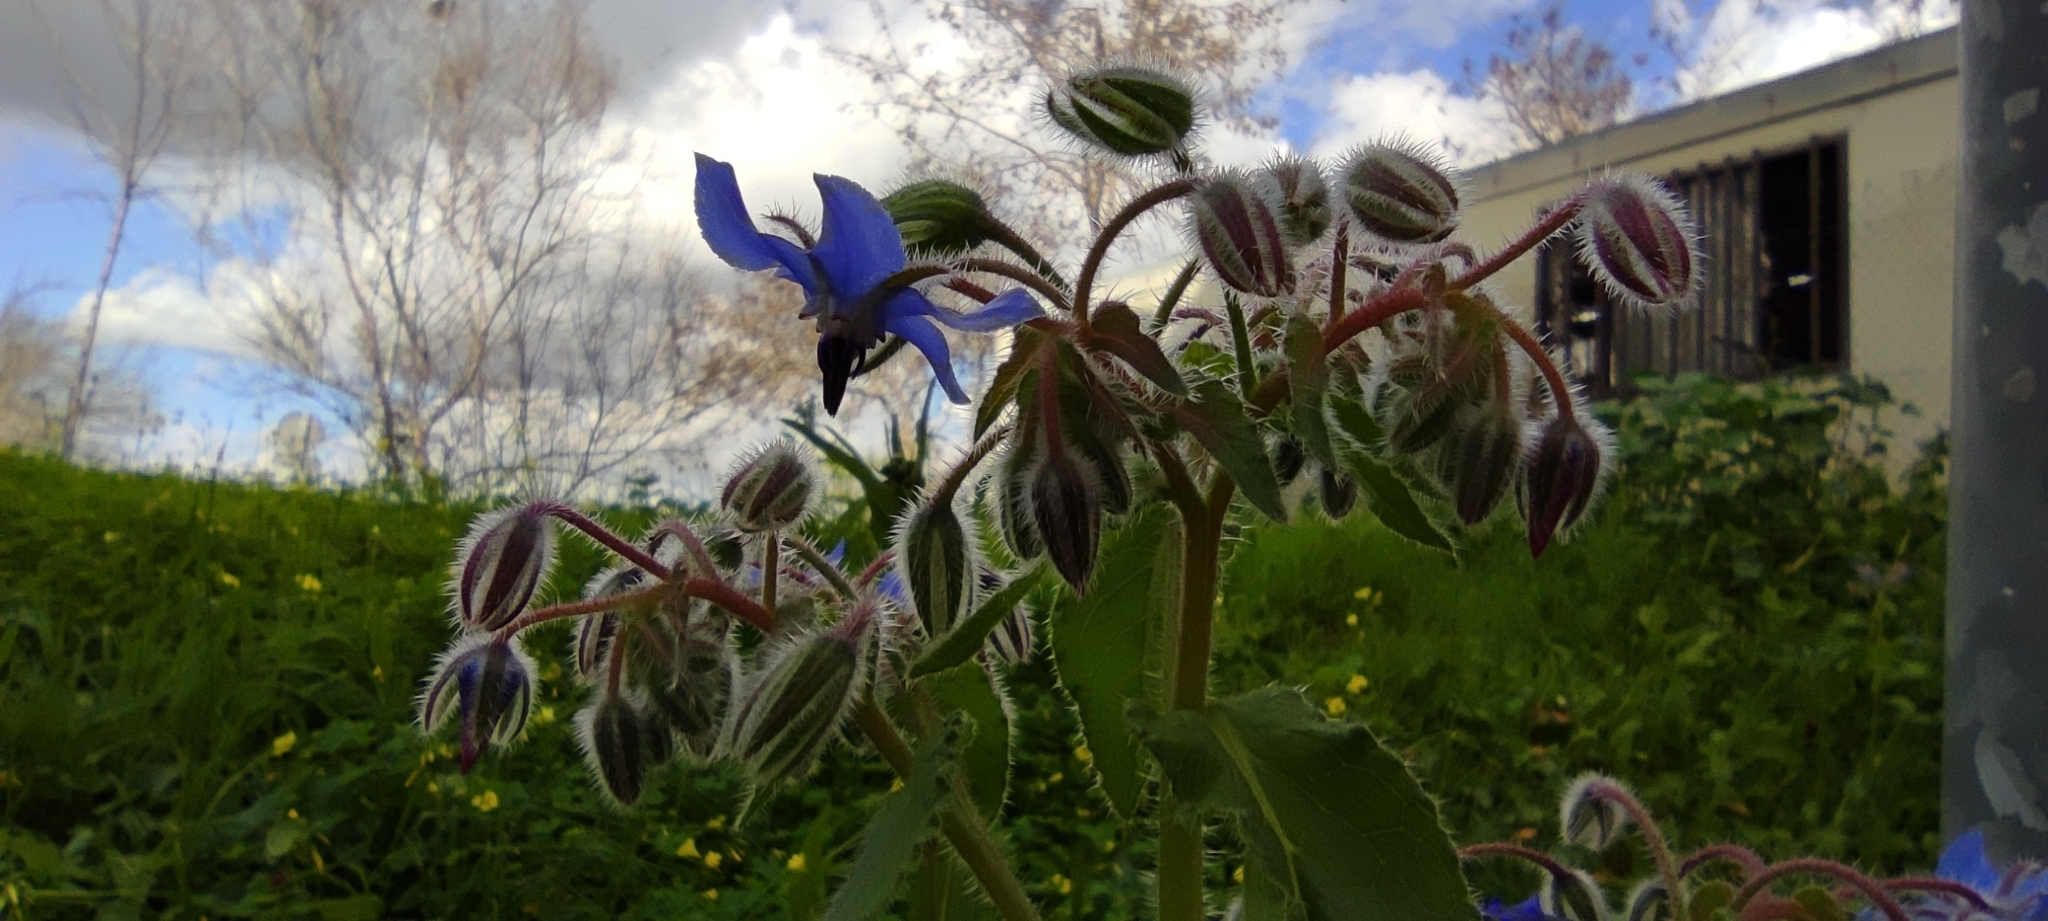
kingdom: Plantae
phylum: Tracheophyta
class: Magnoliopsida
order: Boraginales
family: Boraginaceae
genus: Borago
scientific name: Borago officinalis
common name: Borage
